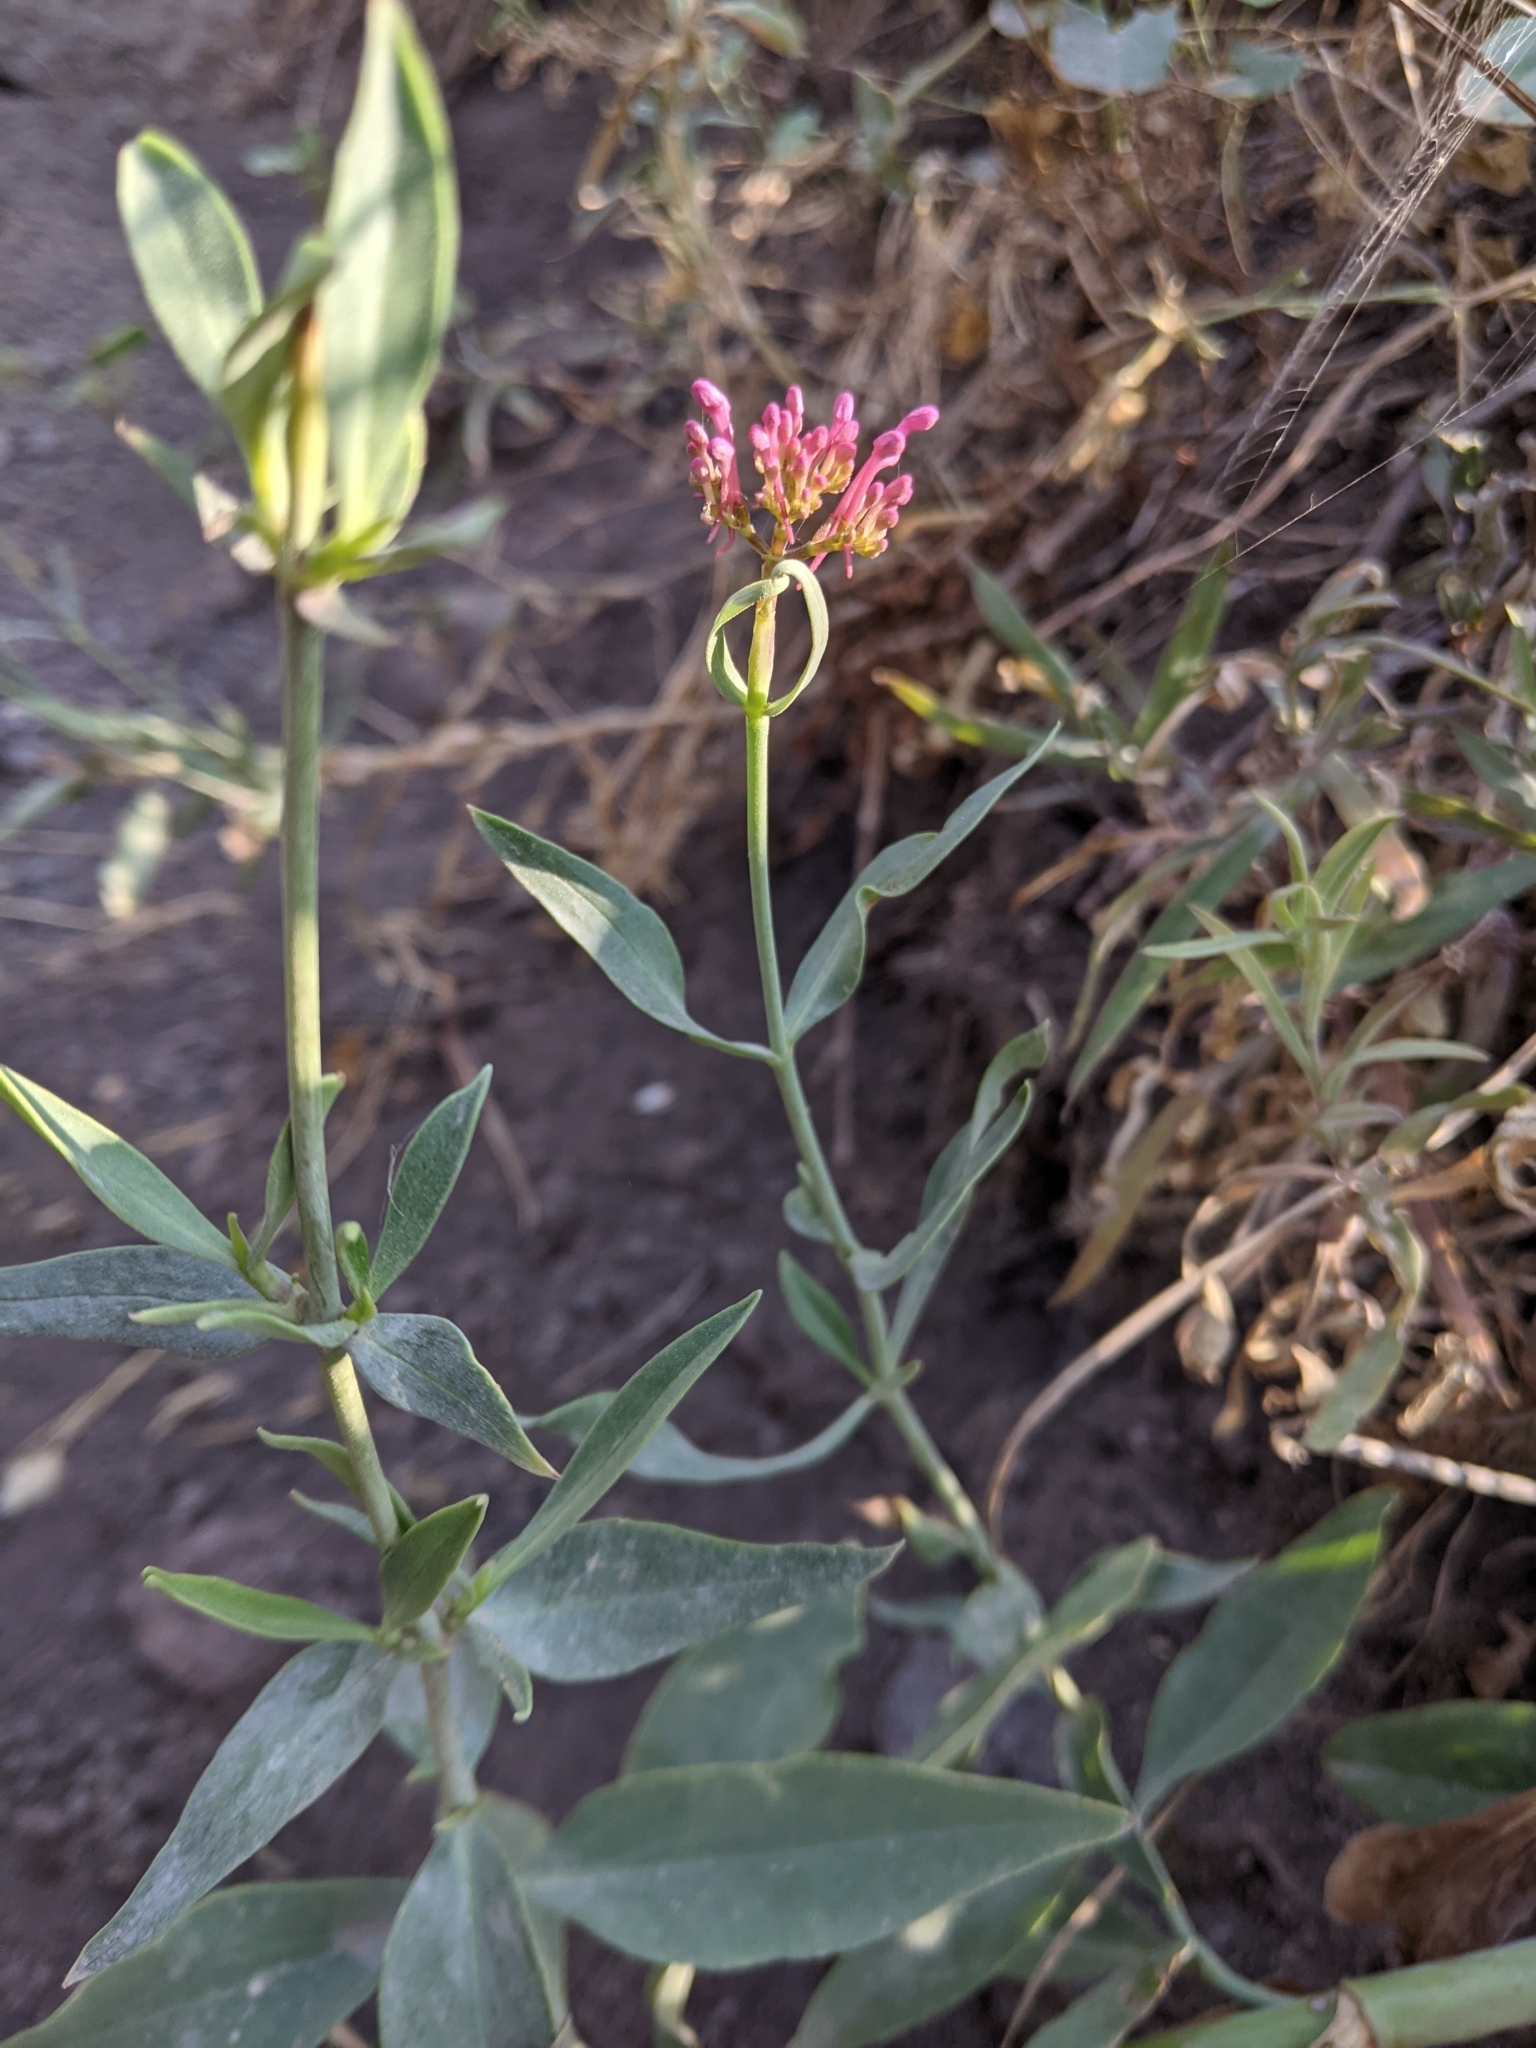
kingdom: Plantae
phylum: Tracheophyta
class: Magnoliopsida
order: Dipsacales
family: Caprifoliaceae
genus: Centranthus
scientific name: Centranthus ruber
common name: Red valerian
